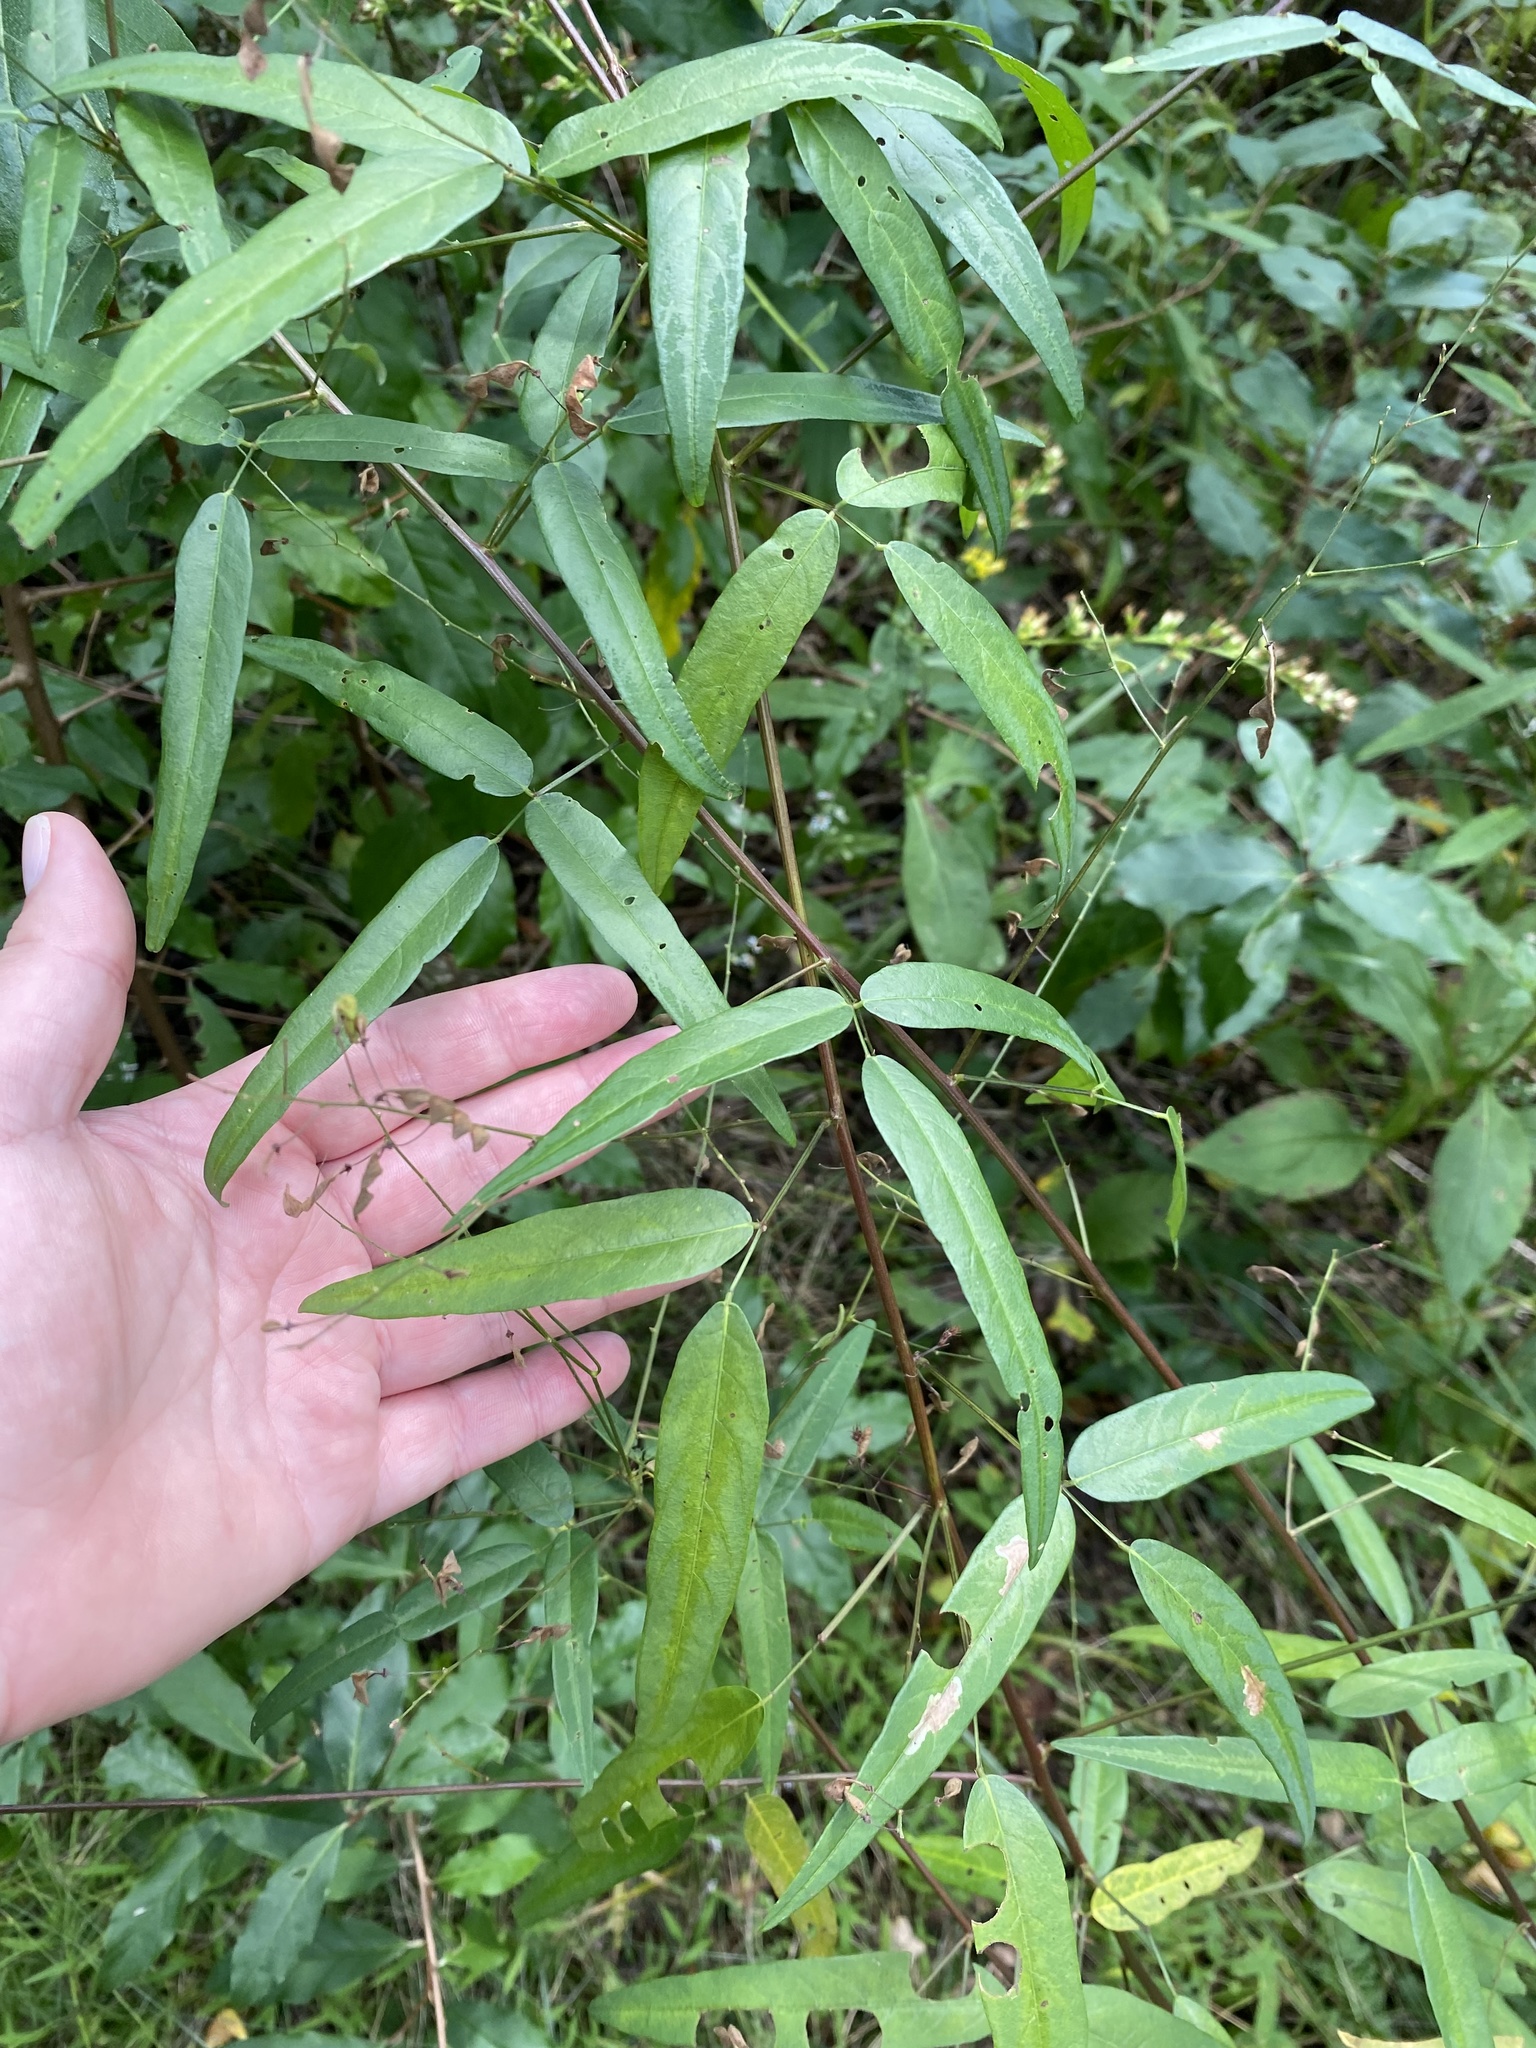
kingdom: Plantae
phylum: Tracheophyta
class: Magnoliopsida
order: Fabales
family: Fabaceae
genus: Desmodium
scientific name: Desmodium paniculatum
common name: Panicled tick-clover
